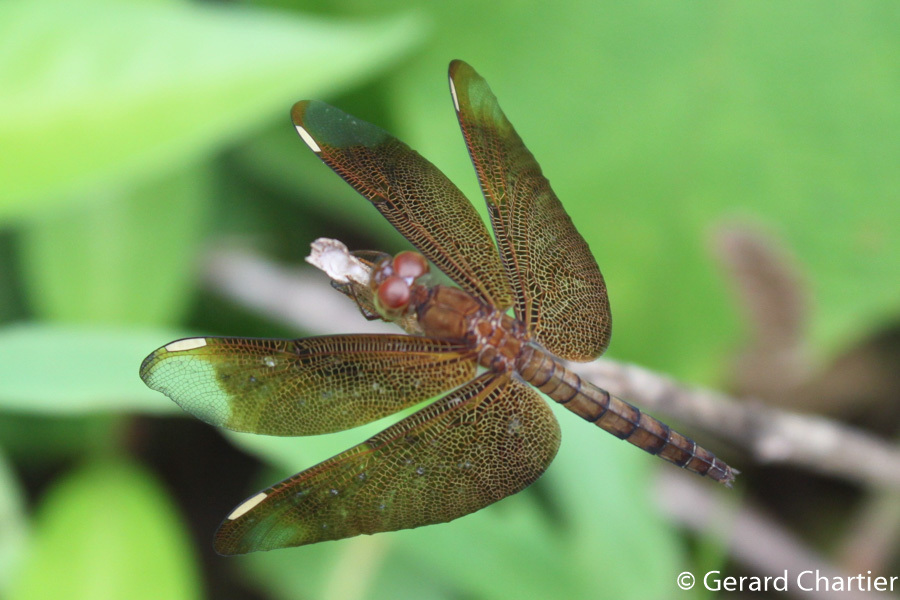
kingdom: Animalia
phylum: Arthropoda
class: Insecta
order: Odonata
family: Libellulidae
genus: Neurothemis
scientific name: Neurothemis fulvia
